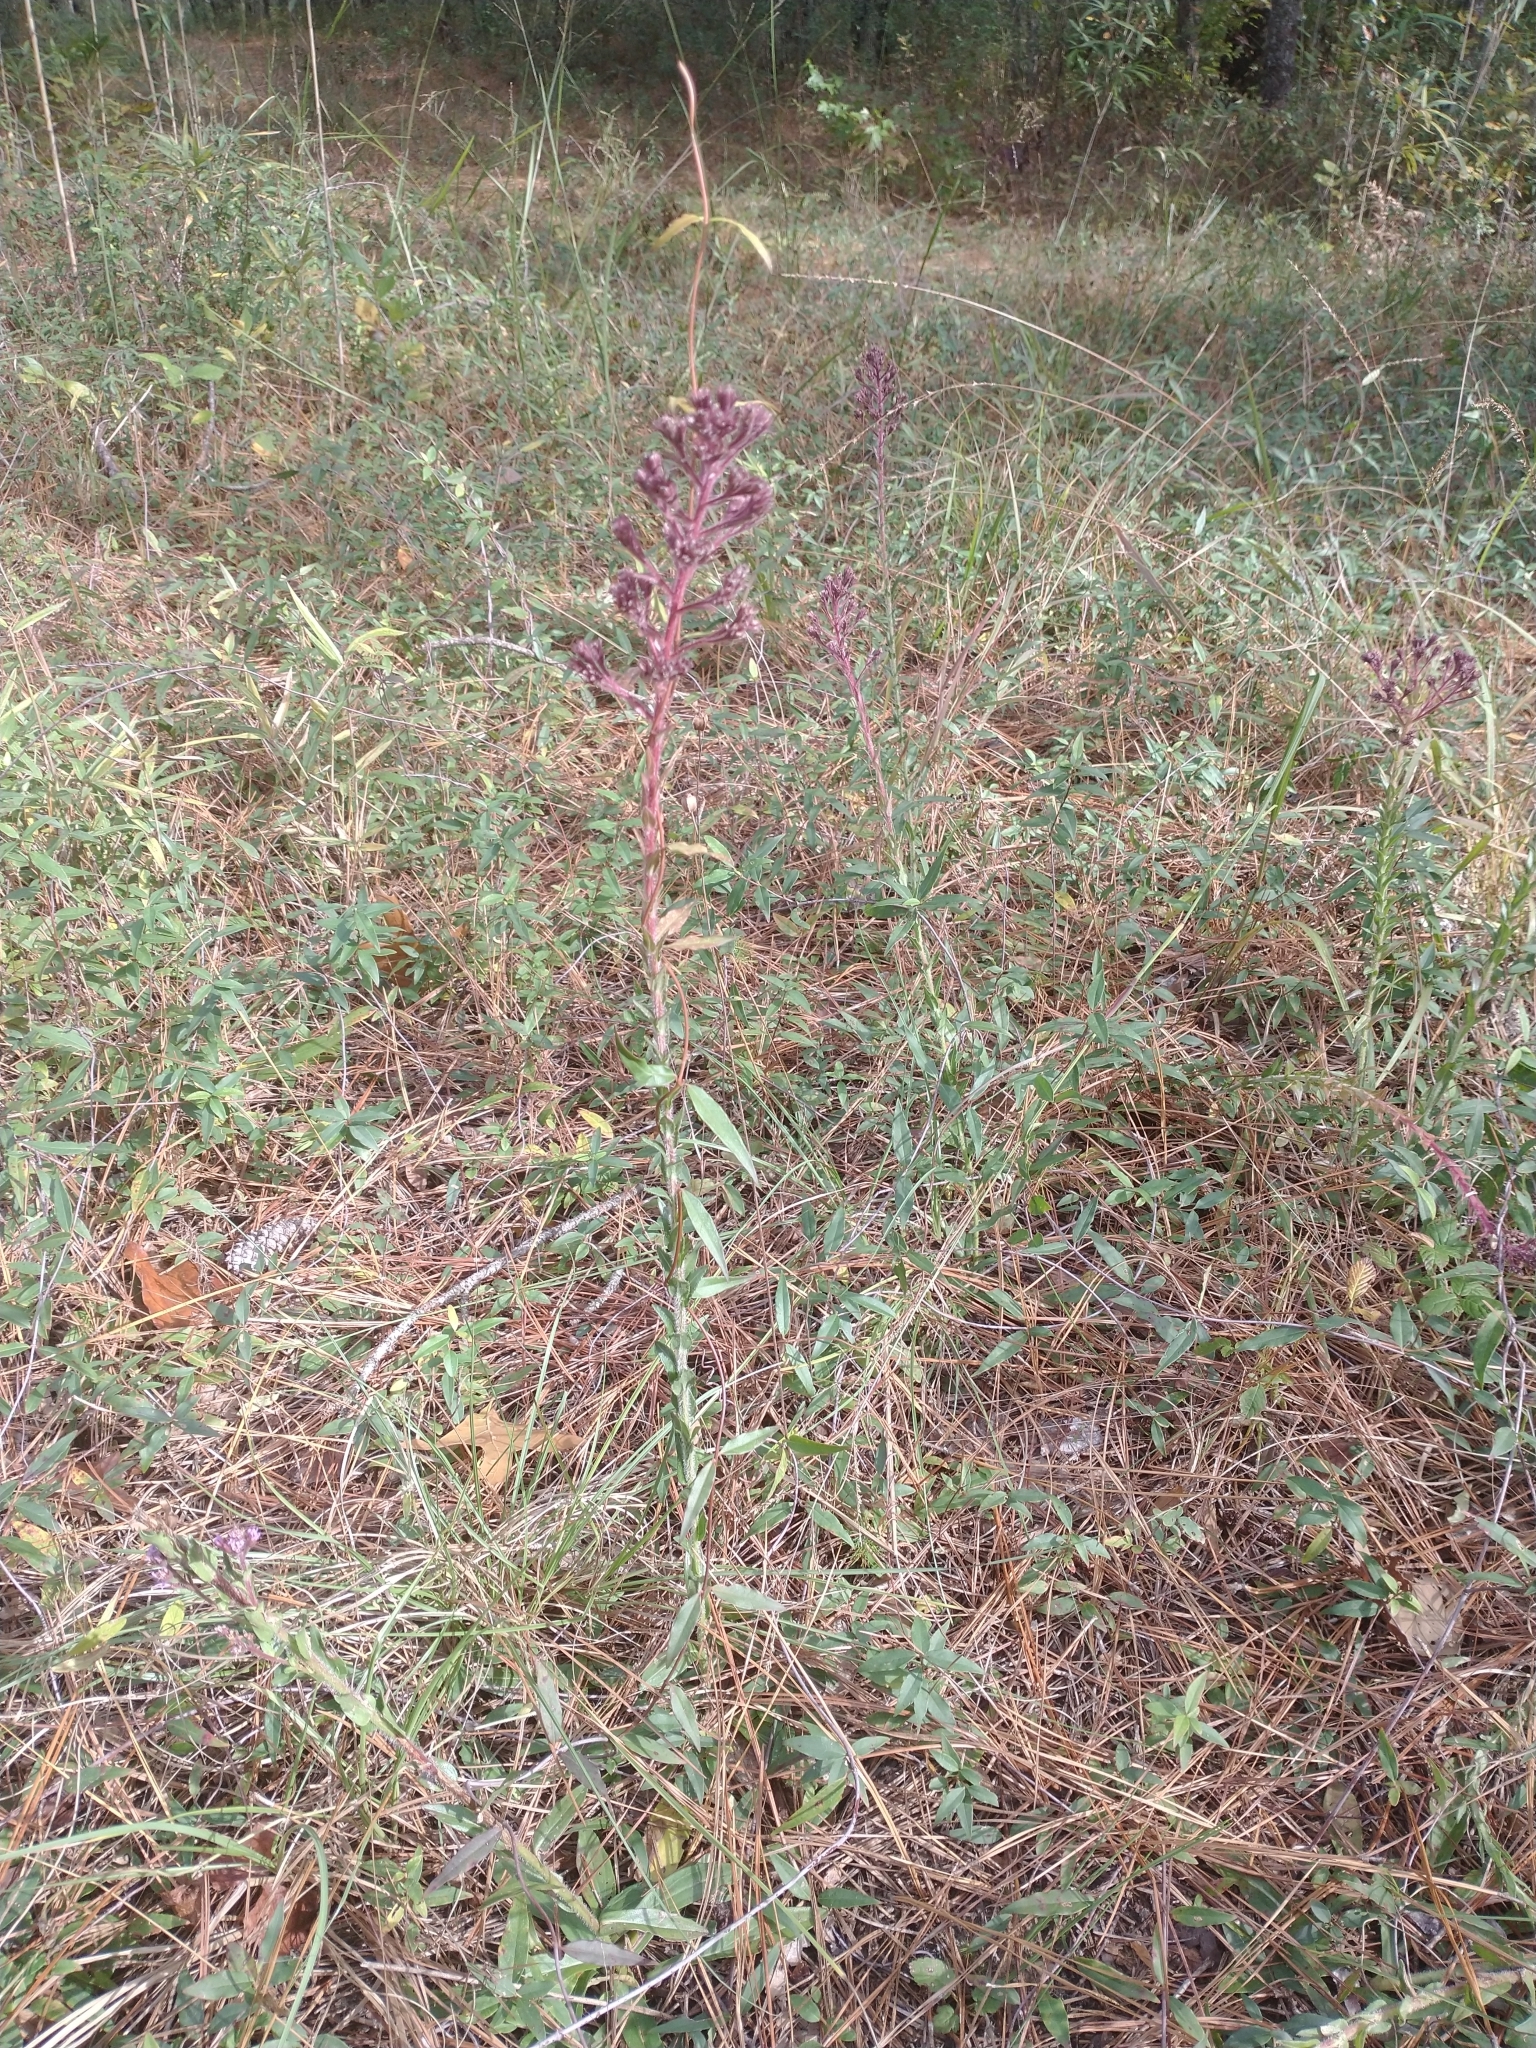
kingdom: Plantae
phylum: Tracheophyta
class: Magnoliopsida
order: Asterales
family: Asteraceae
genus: Carphephorus
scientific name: Carphephorus paniculatus
